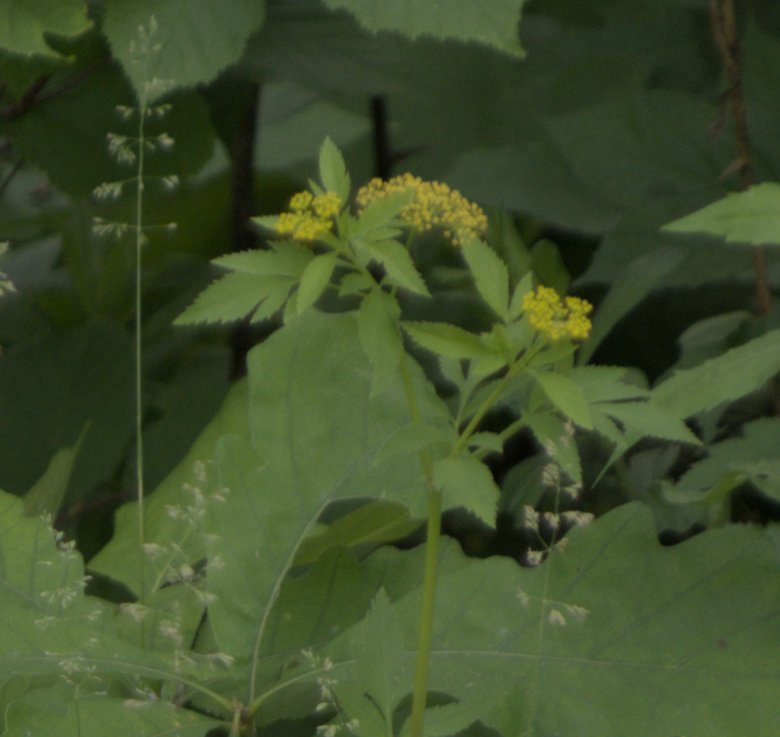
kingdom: Plantae
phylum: Tracheophyta
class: Magnoliopsida
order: Apiales
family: Apiaceae
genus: Zizia
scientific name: Zizia aurea
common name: Golden alexanders
